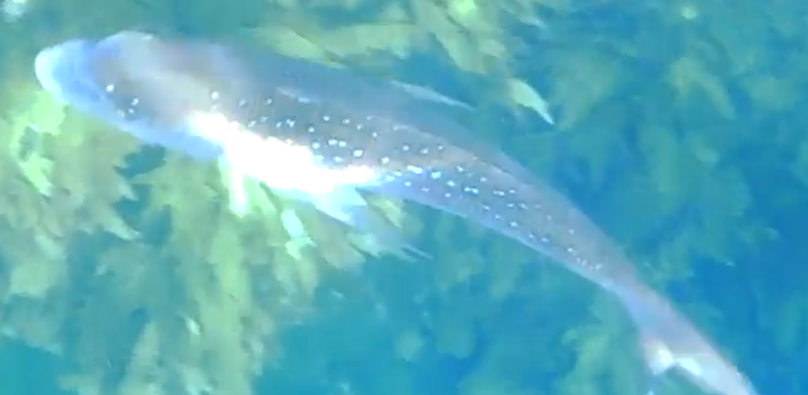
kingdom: Animalia
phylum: Chordata
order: Perciformes
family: Sparidae
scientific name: Sparidae
